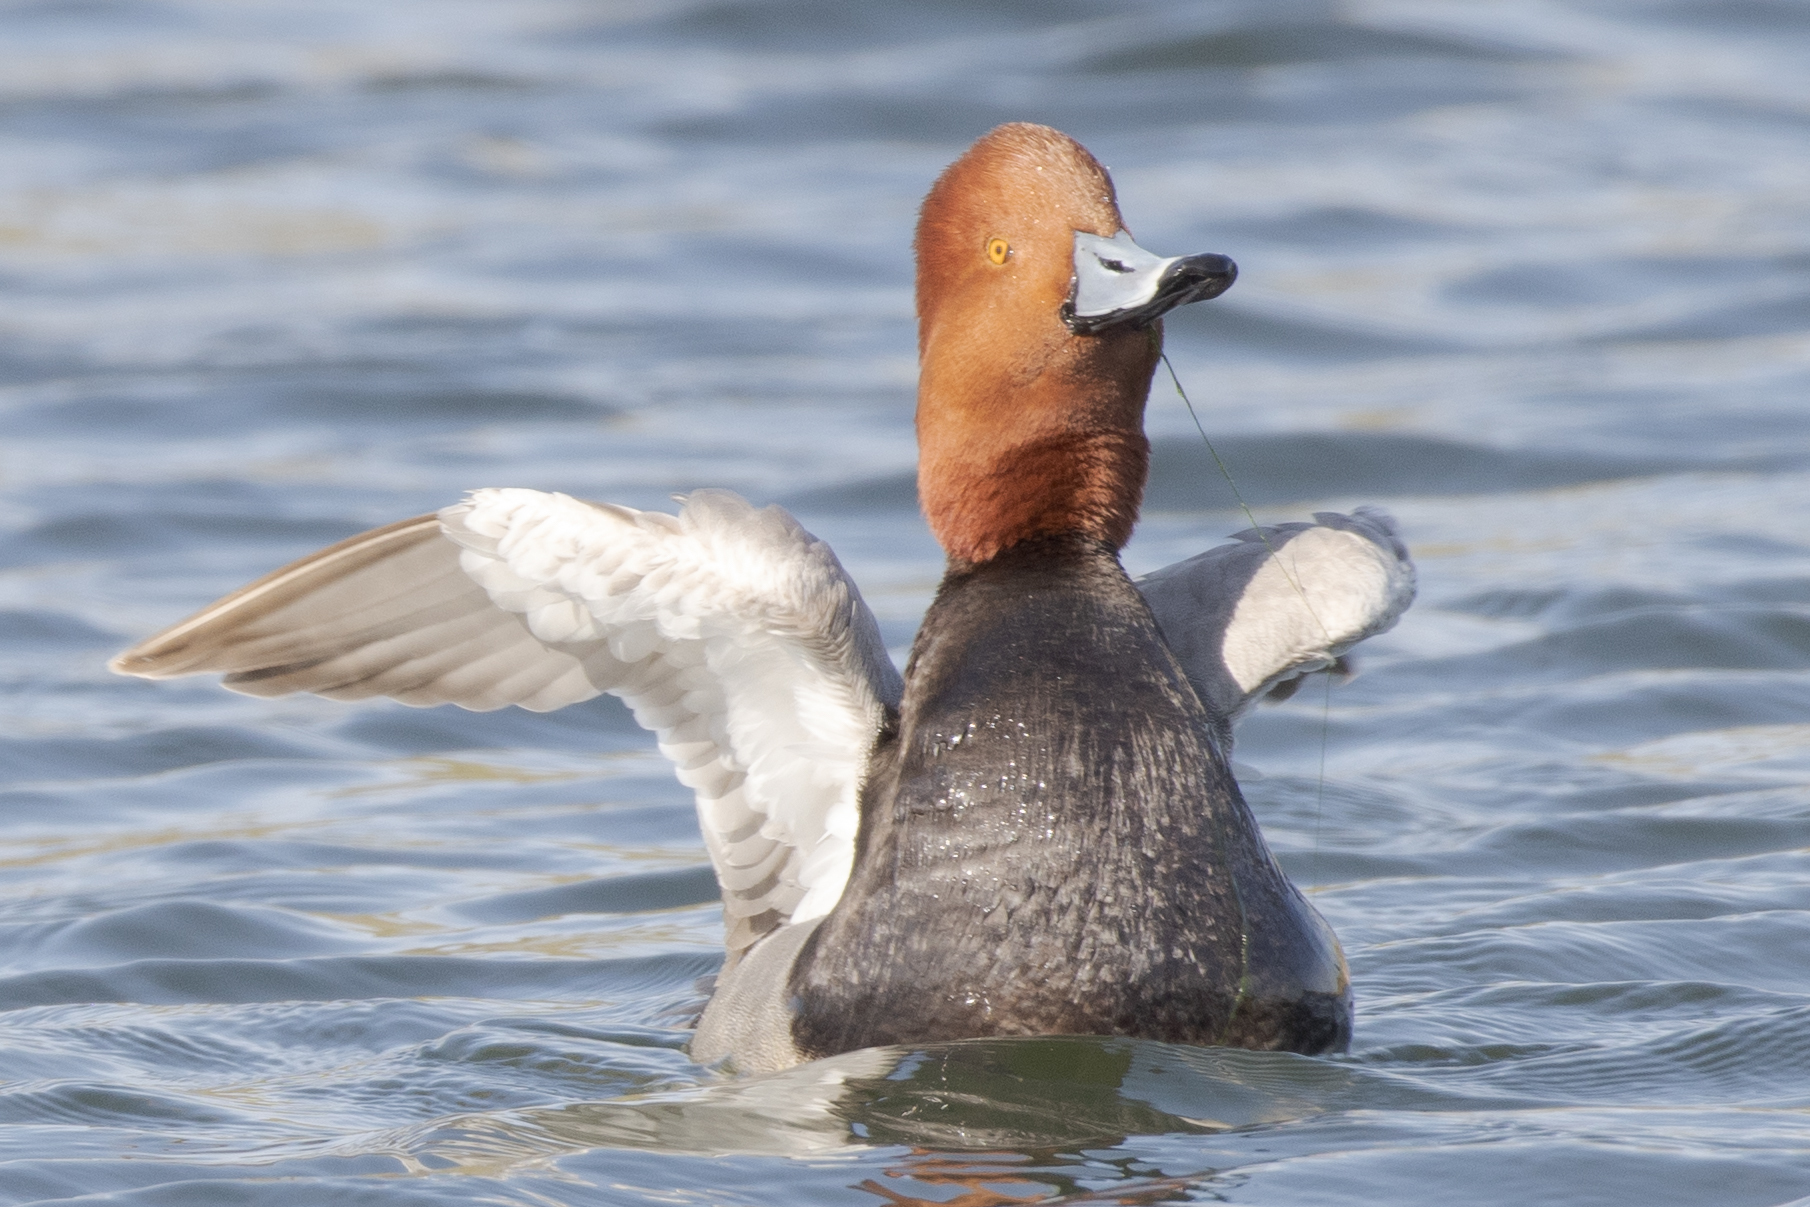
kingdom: Animalia
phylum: Chordata
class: Aves
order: Anseriformes
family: Anatidae
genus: Aythya
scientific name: Aythya americana
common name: Redhead
